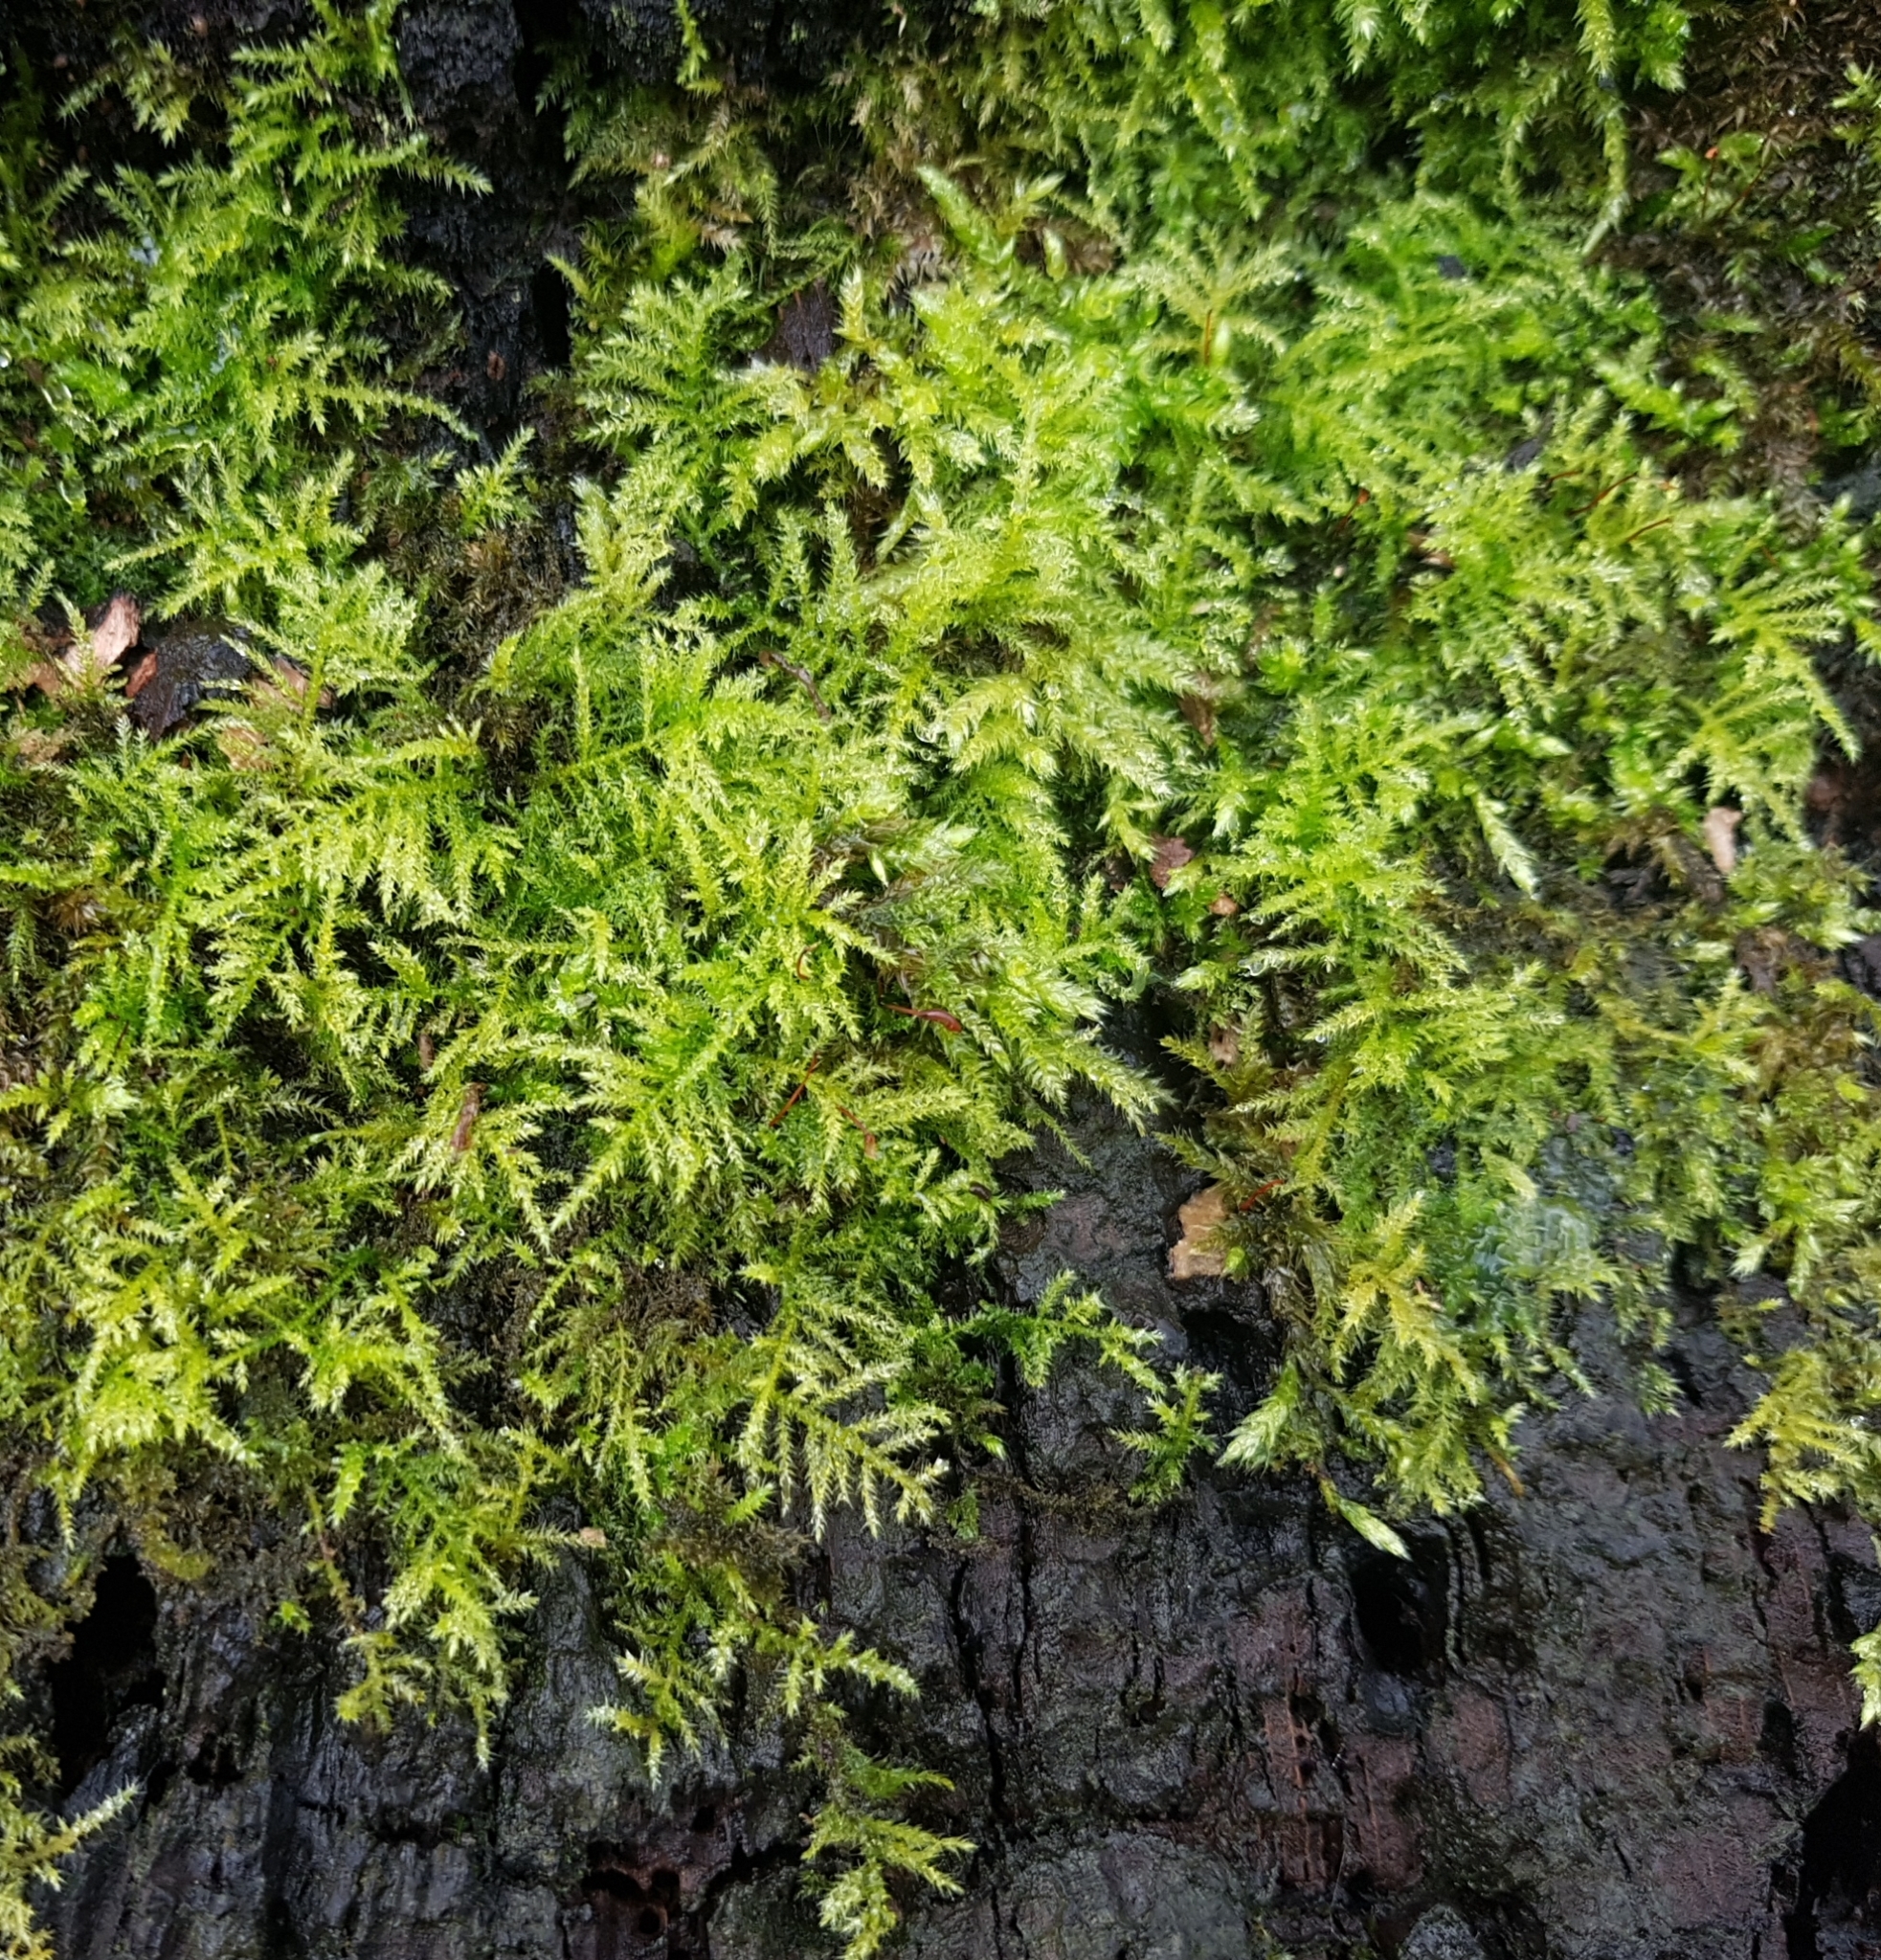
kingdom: Plantae
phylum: Bryophyta
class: Bryopsida
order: Hypnales
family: Brachytheciaceae
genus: Kindbergia
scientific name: Kindbergia praelonga
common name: Slender beaked moss
